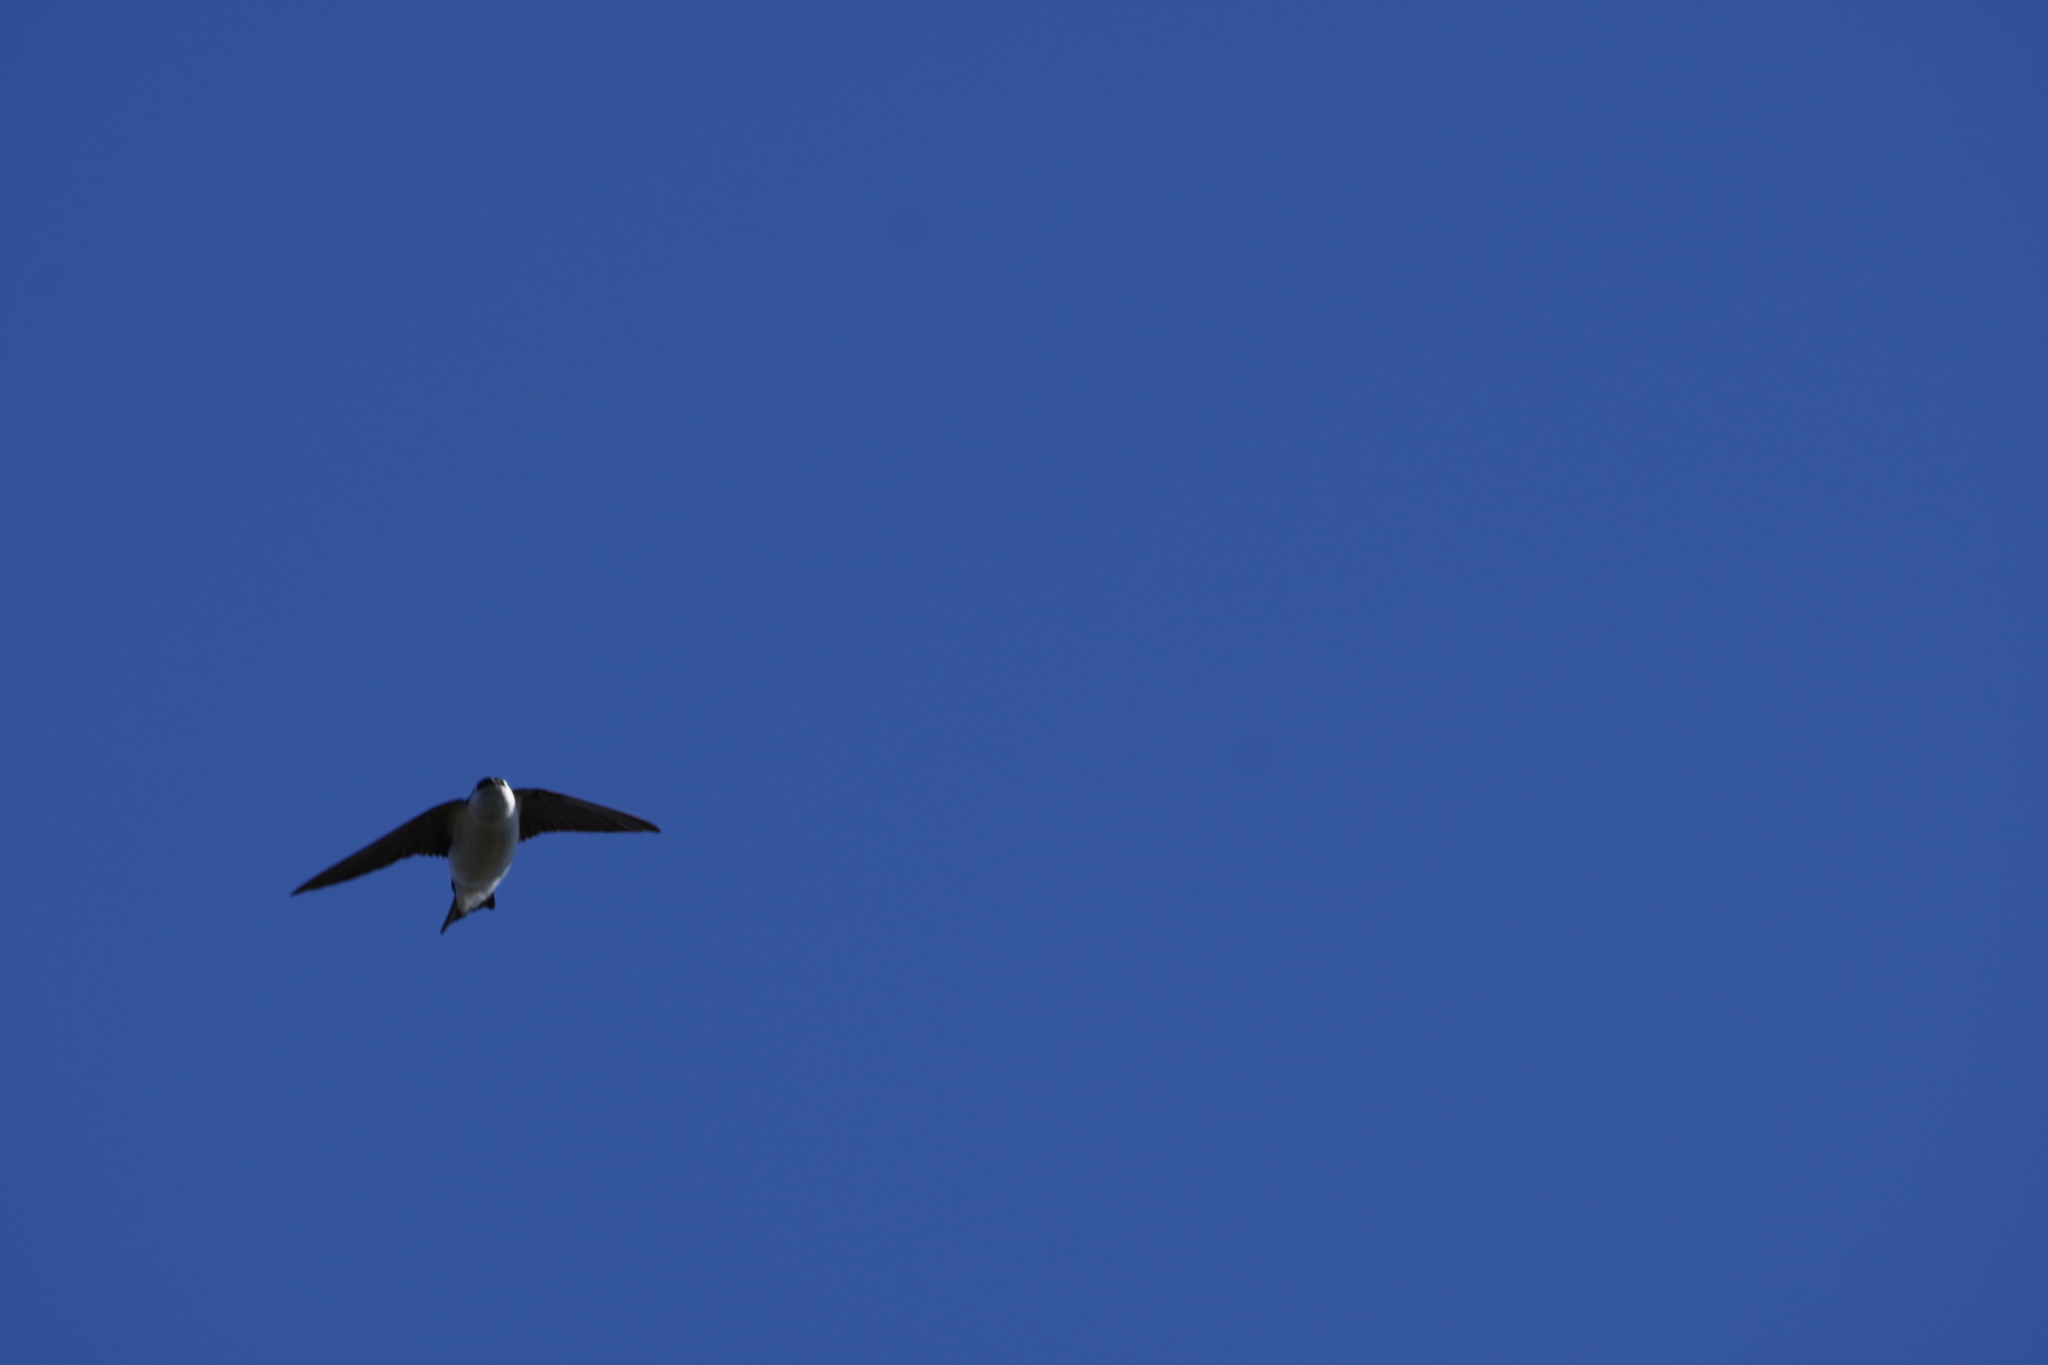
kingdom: Animalia
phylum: Chordata
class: Aves
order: Passeriformes
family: Hirundinidae
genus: Tachycineta
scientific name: Tachycineta thalassina
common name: Violet-green swallow
